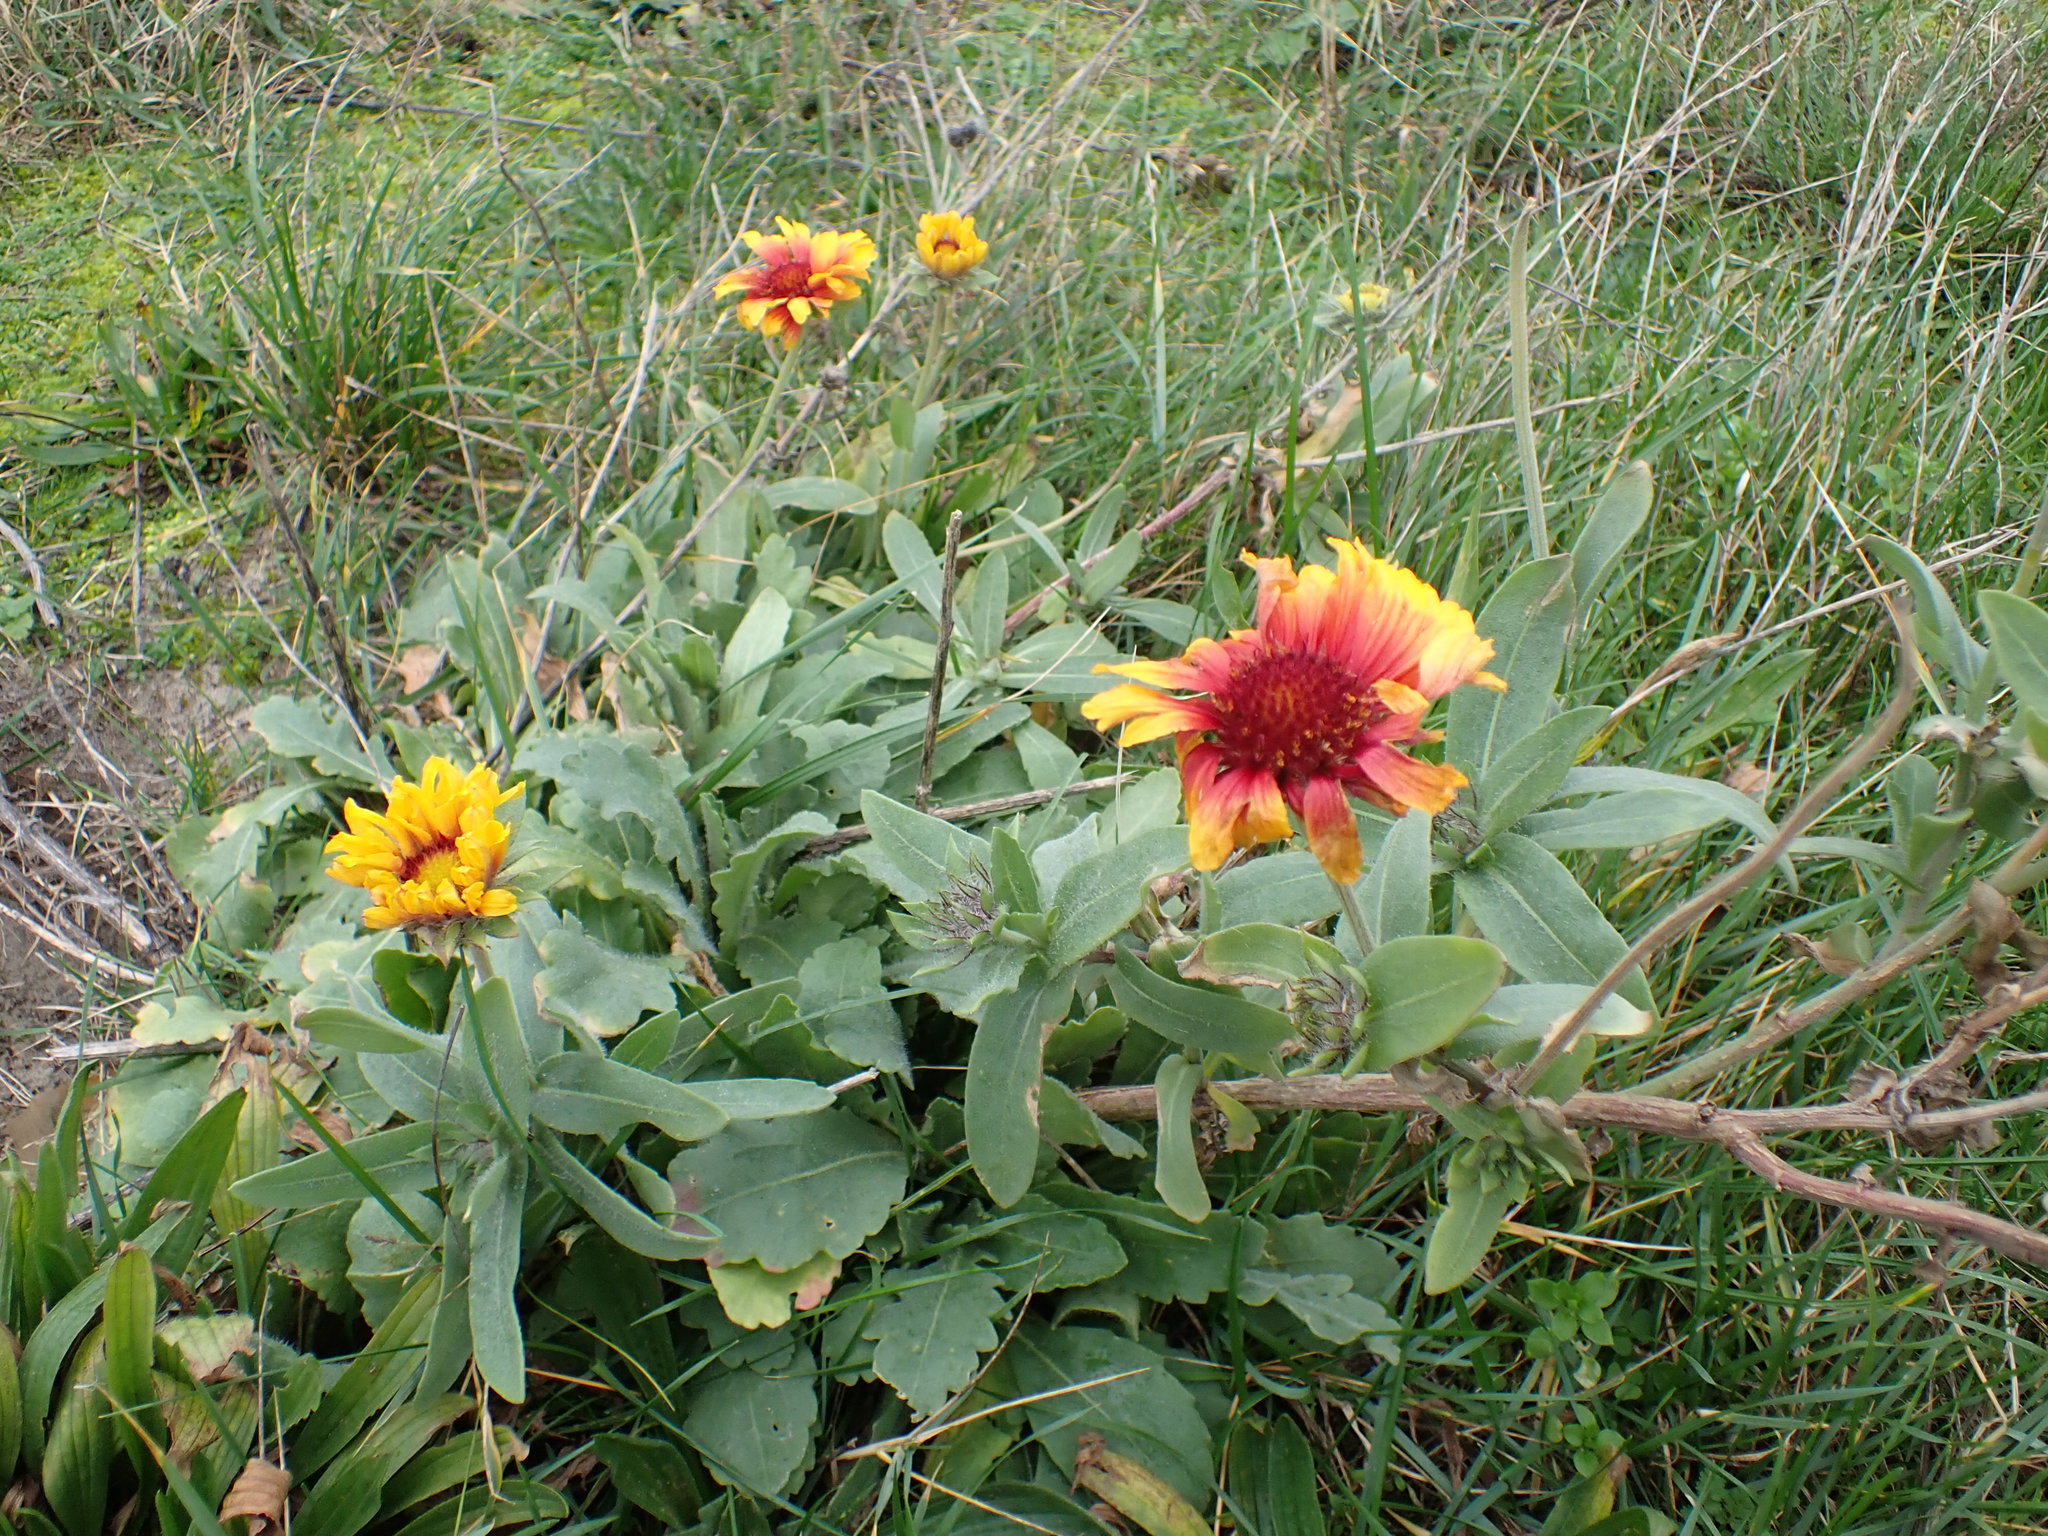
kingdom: Plantae
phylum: Tracheophyta
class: Magnoliopsida
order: Asterales
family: Asteraceae
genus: Gaillardia
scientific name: Gaillardia grandiflora
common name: Blanket flower
